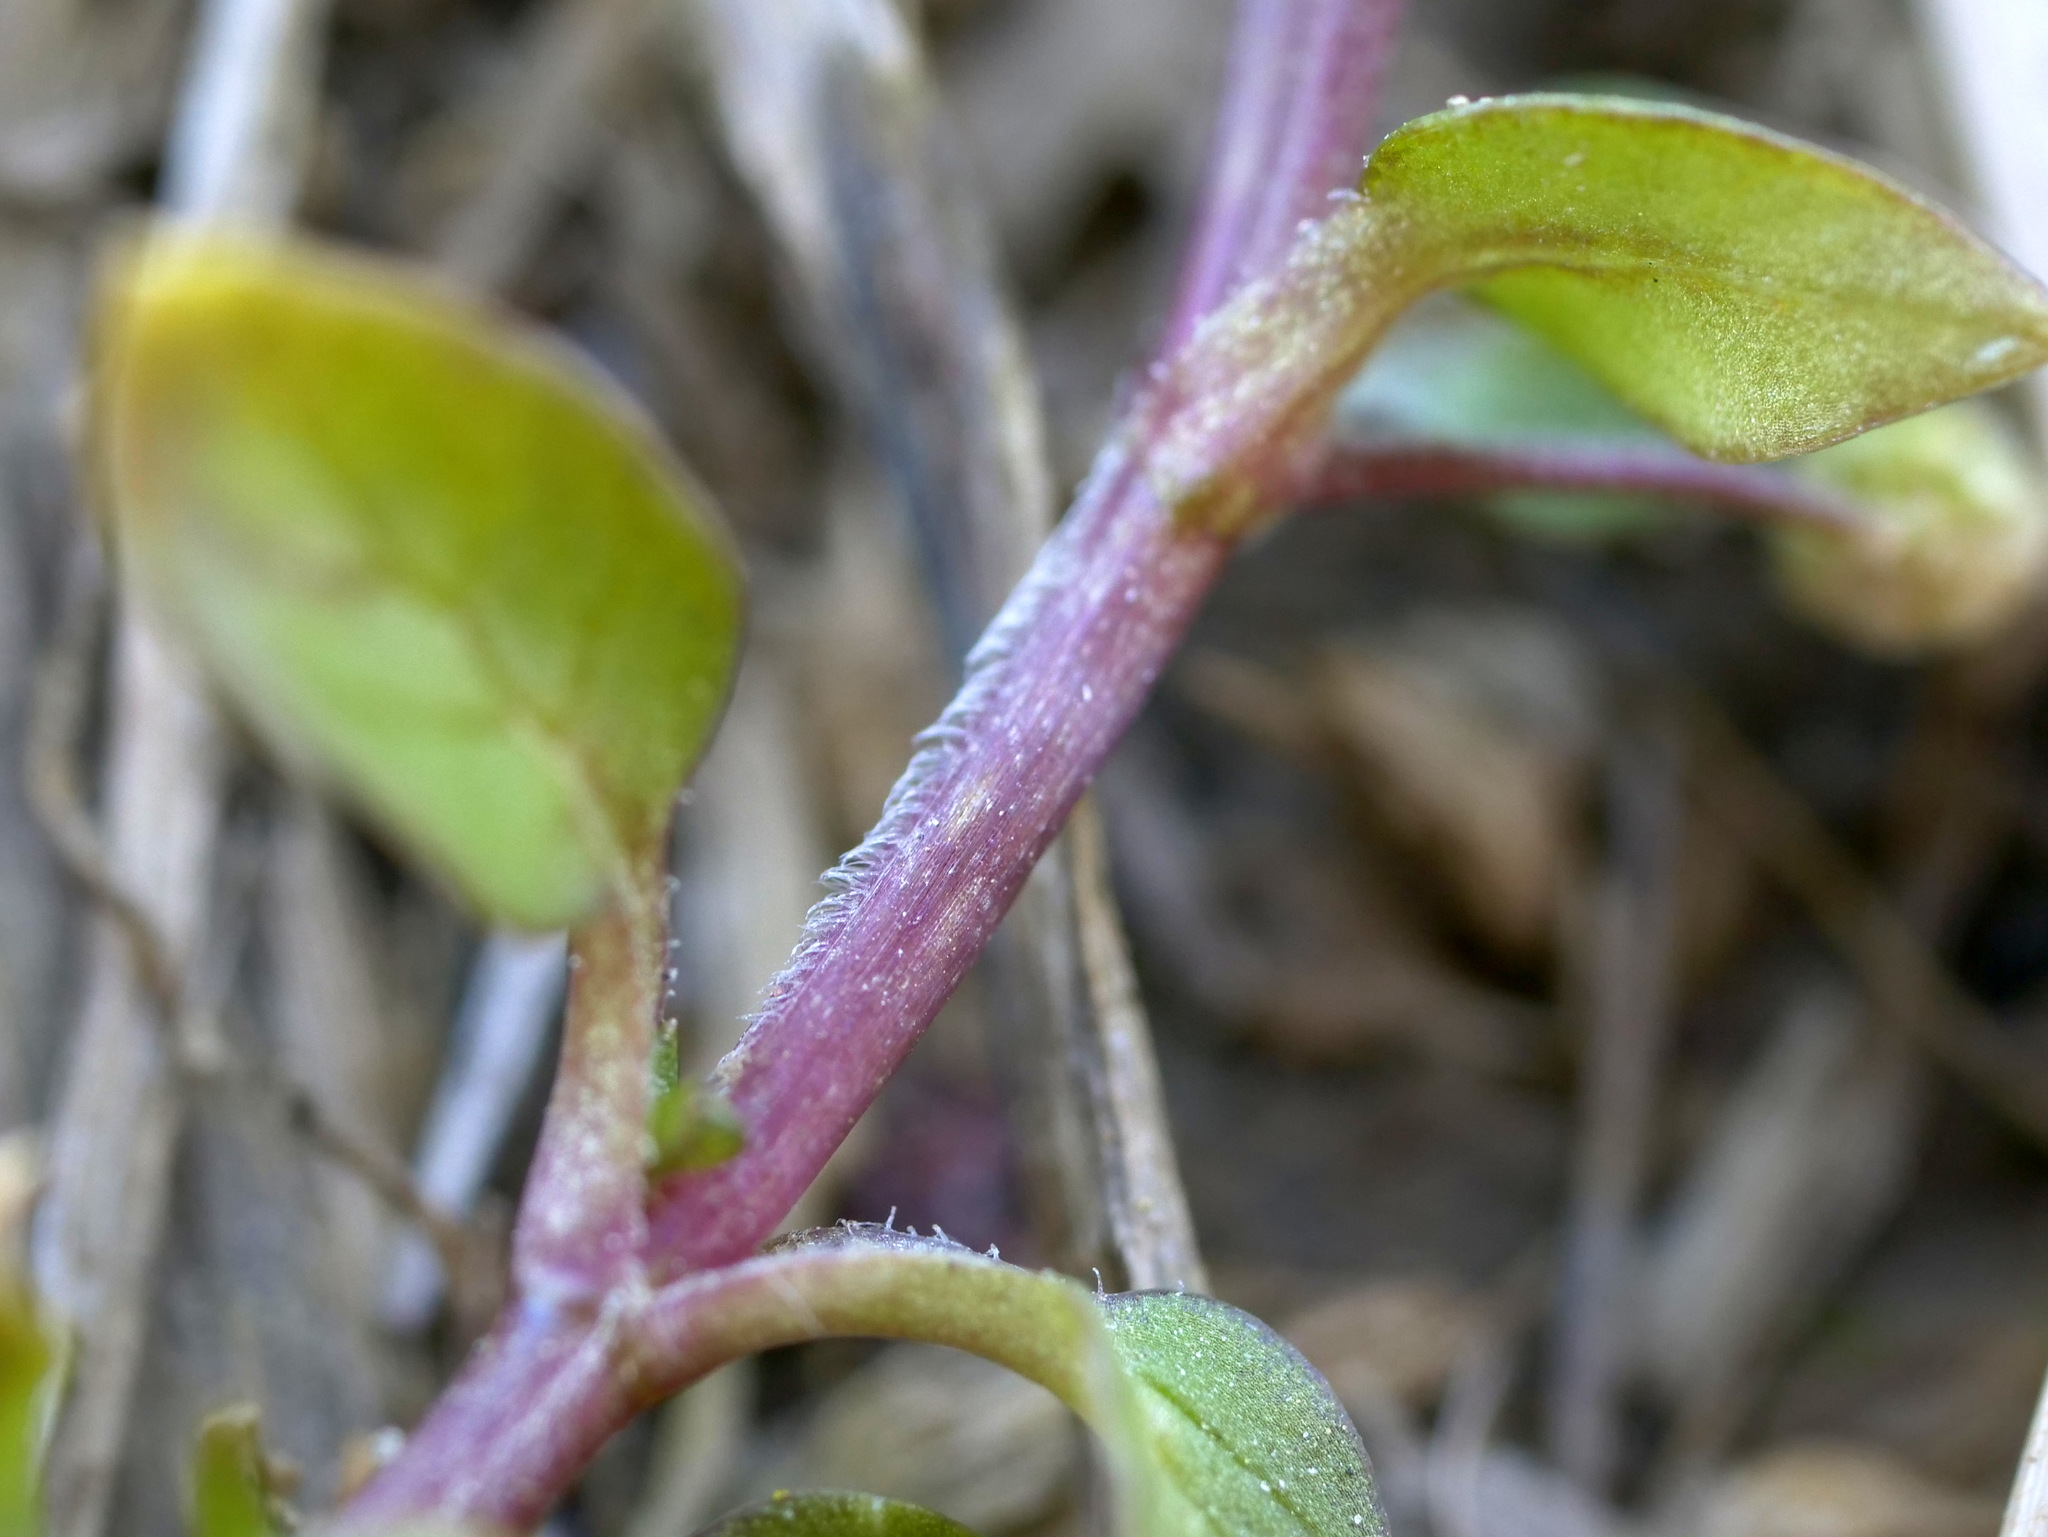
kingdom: Plantae
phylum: Tracheophyta
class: Magnoliopsida
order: Caryophyllales
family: Caryophyllaceae
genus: Stellaria
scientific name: Stellaria media
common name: Common chickweed
